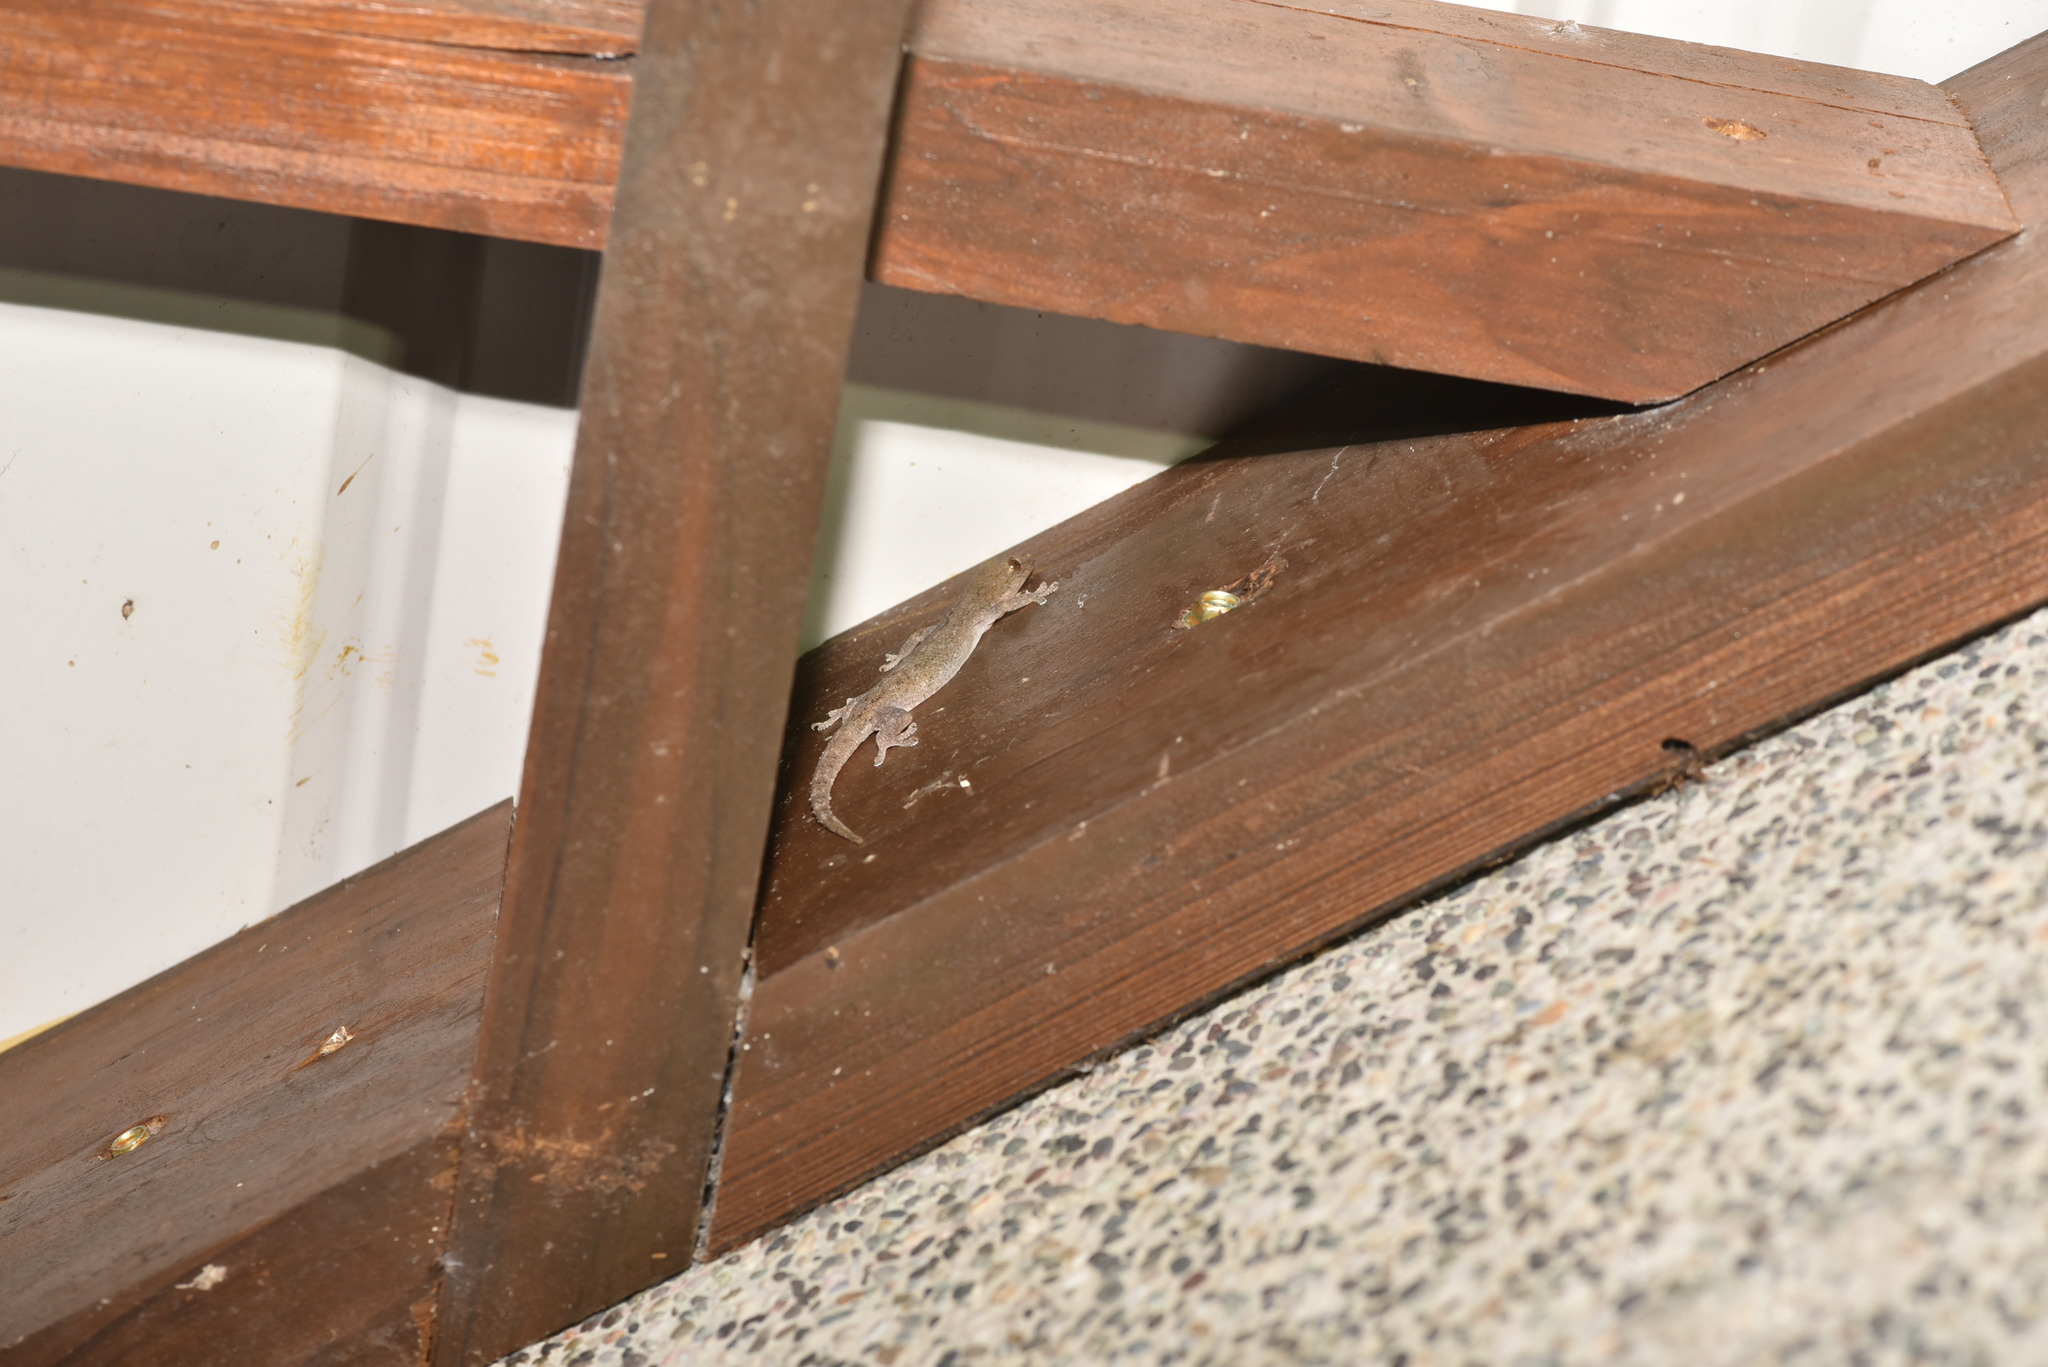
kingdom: Animalia
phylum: Chordata
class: Squamata
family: Gekkonidae
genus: Hemidactylus
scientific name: Hemidactylus frenatus
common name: Common house gecko
